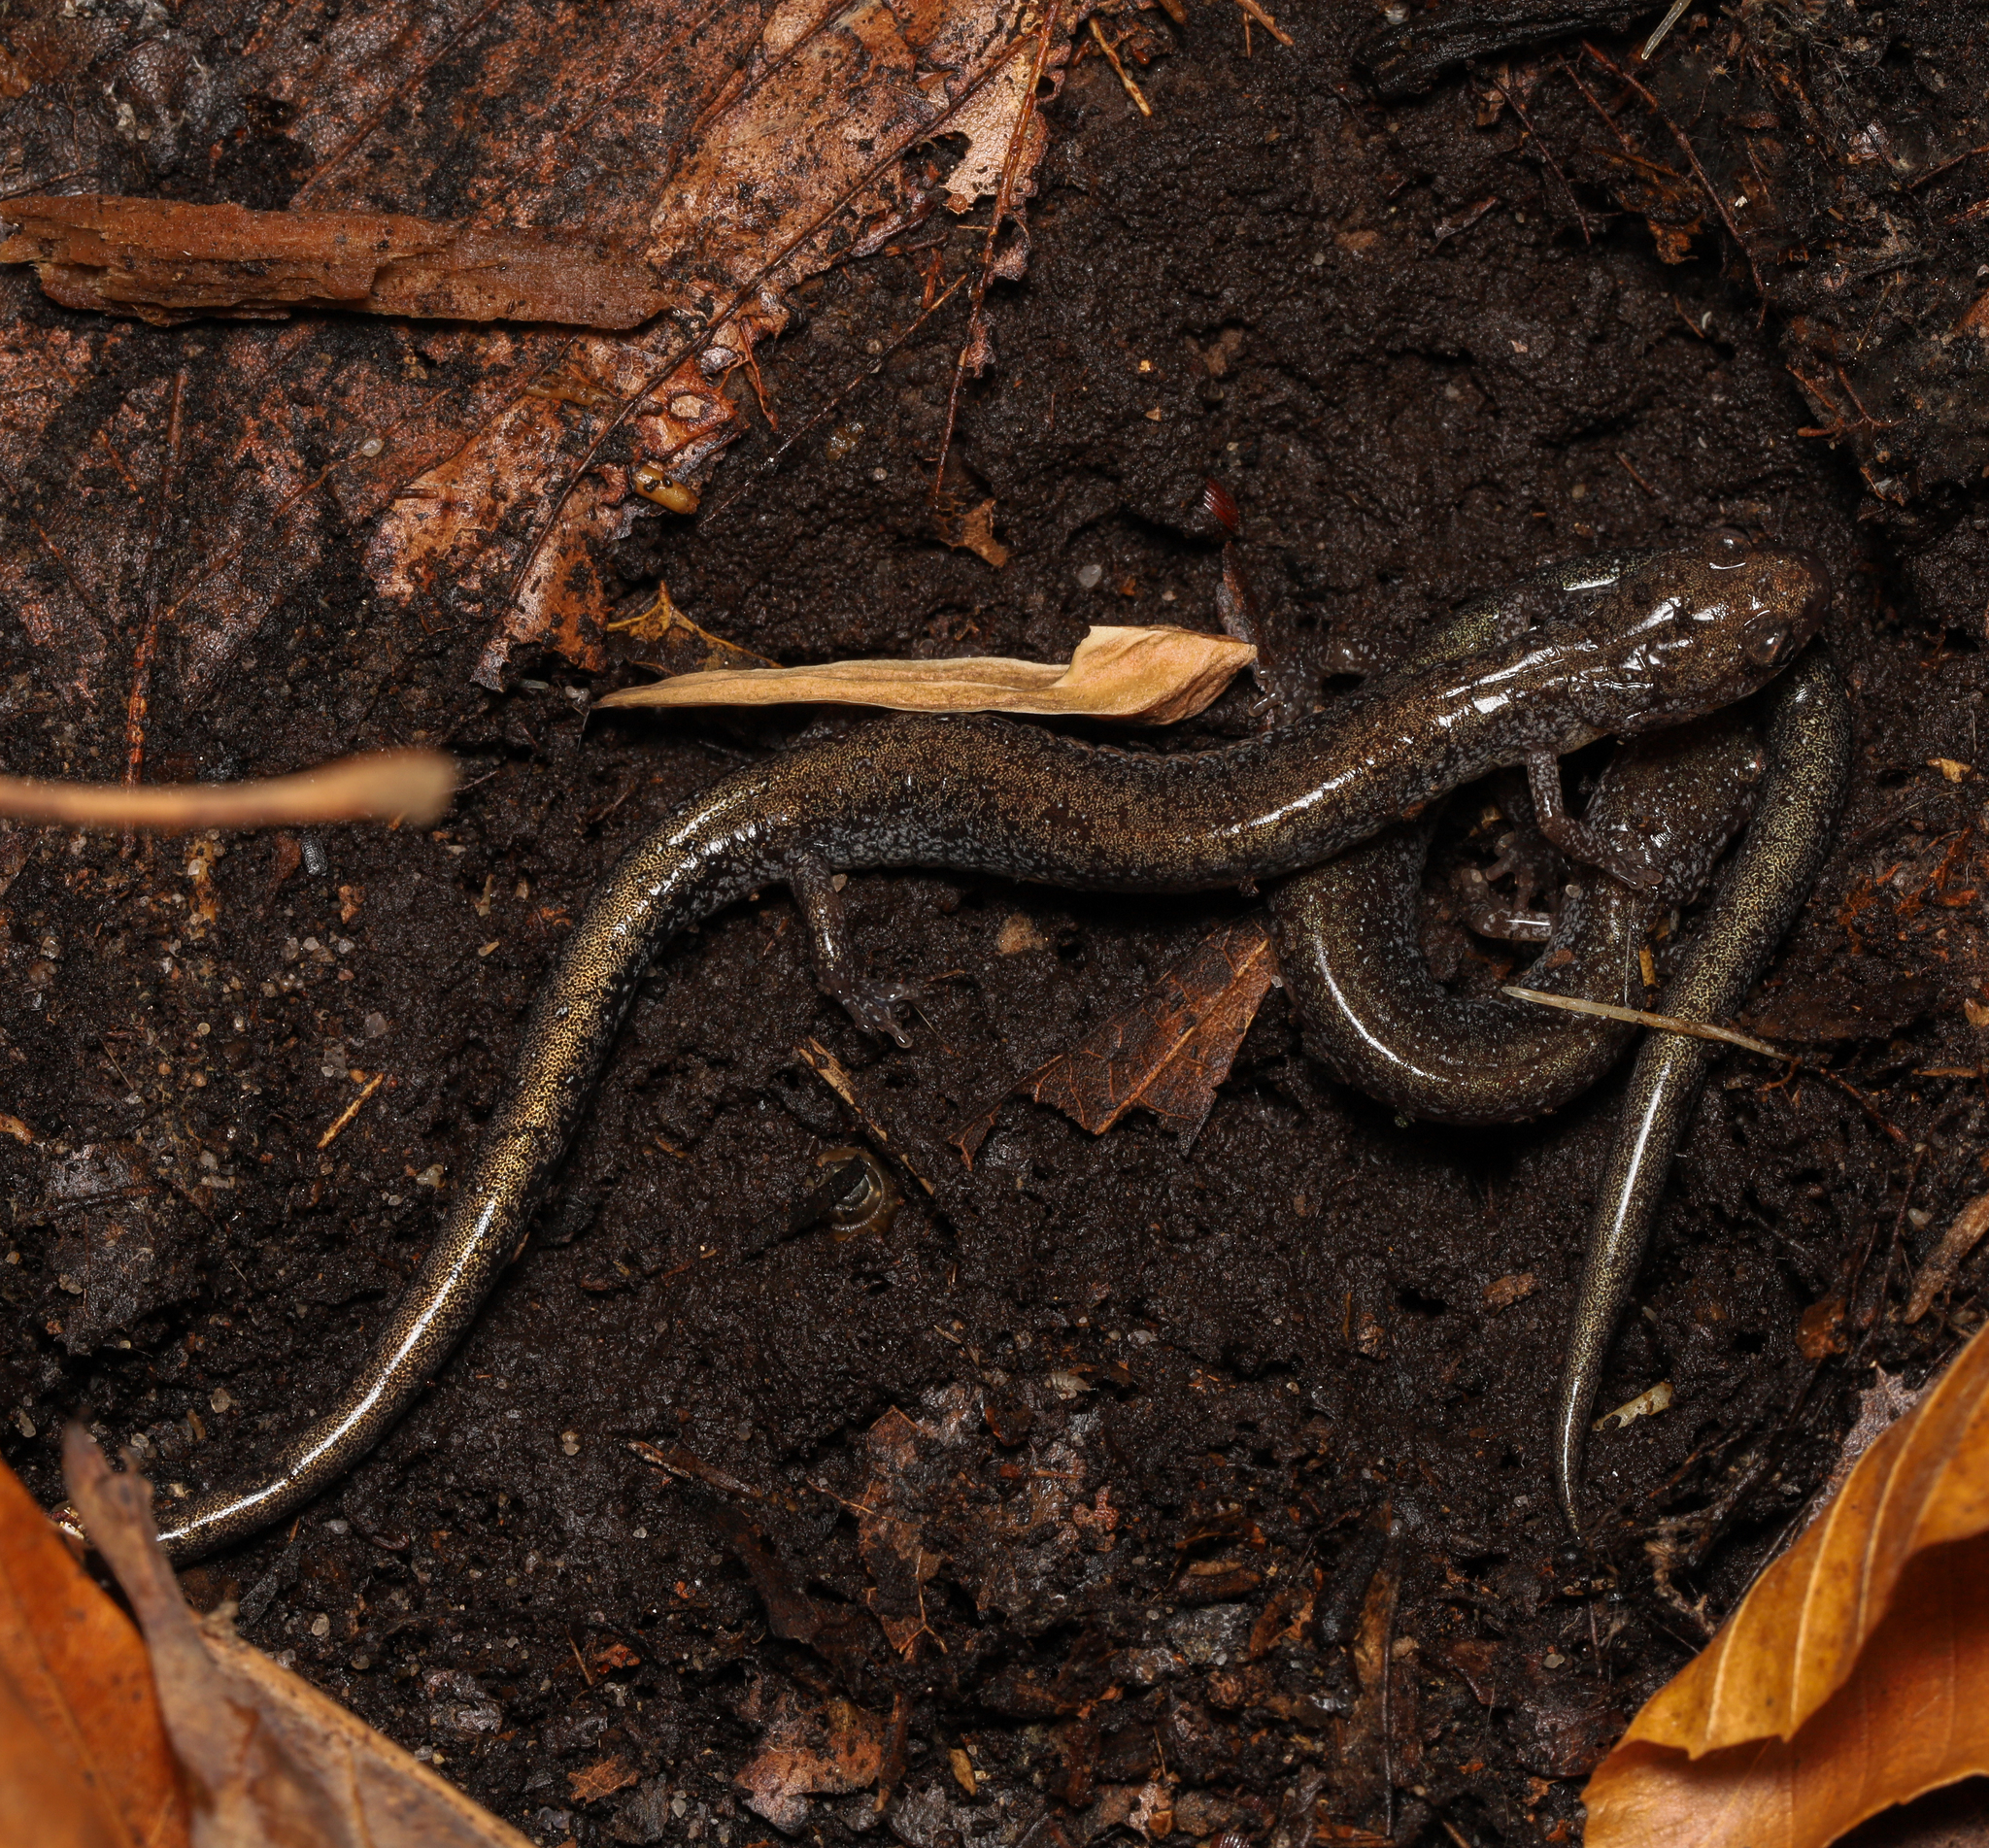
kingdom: Animalia
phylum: Chordata
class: Amphibia
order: Caudata
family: Plethodontidae
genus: Plethodon
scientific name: Plethodon cinereus
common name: Redback salamander
